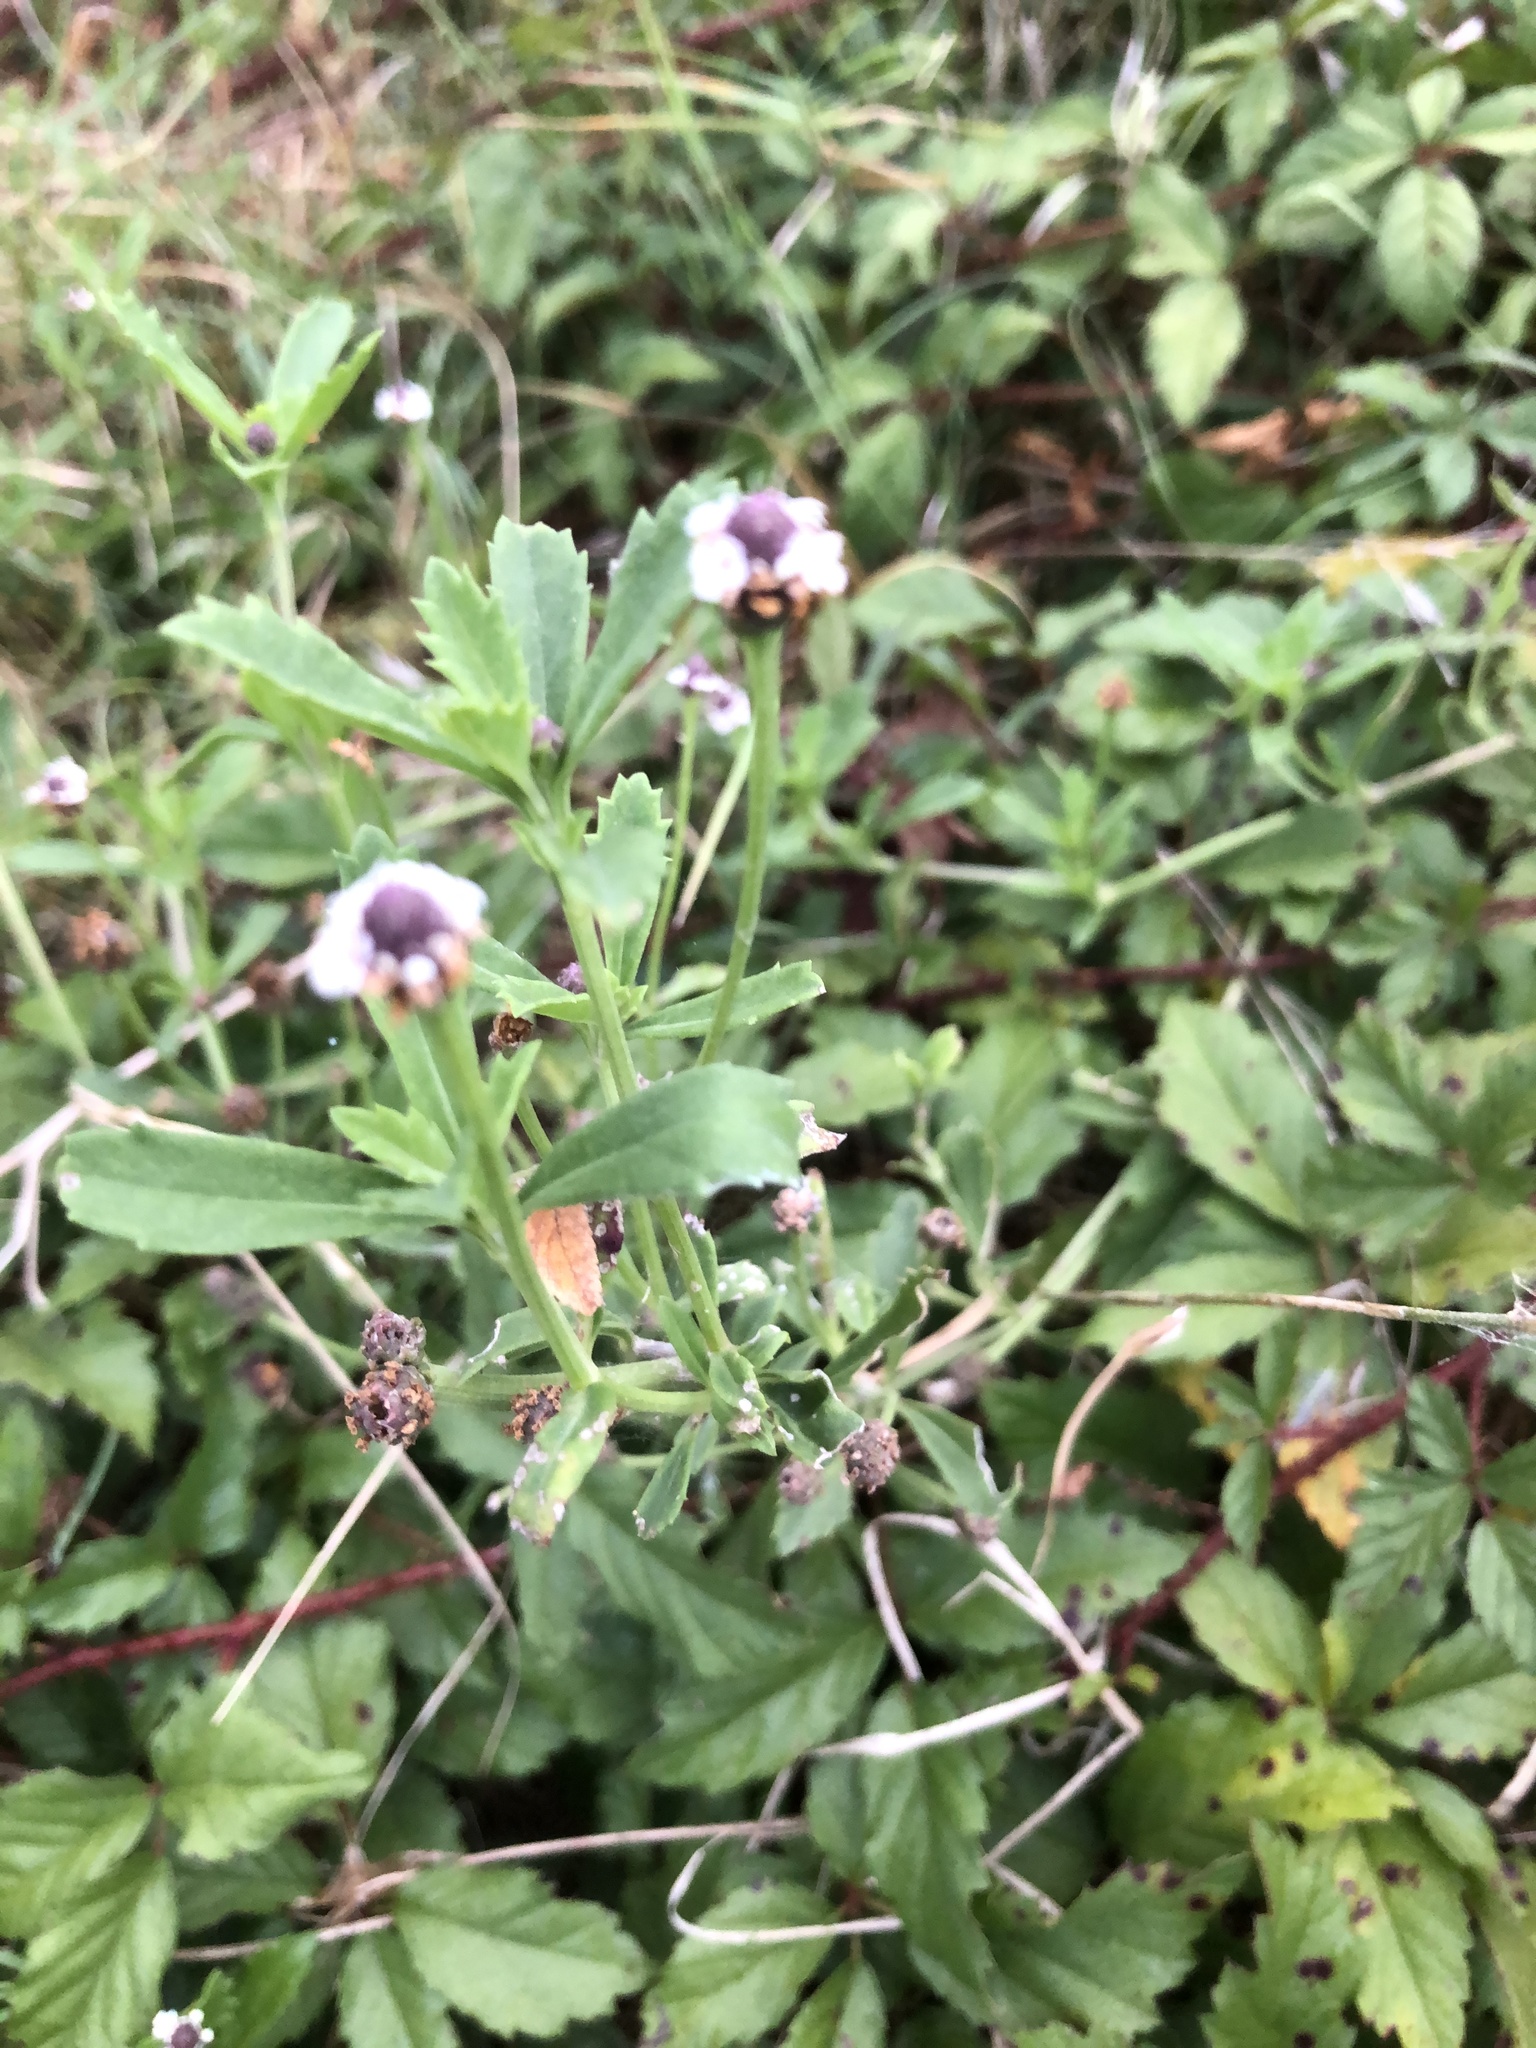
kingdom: Plantae
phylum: Tracheophyta
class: Magnoliopsida
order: Lamiales
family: Verbenaceae
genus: Phyla
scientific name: Phyla nodiflora
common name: Frogfruit
